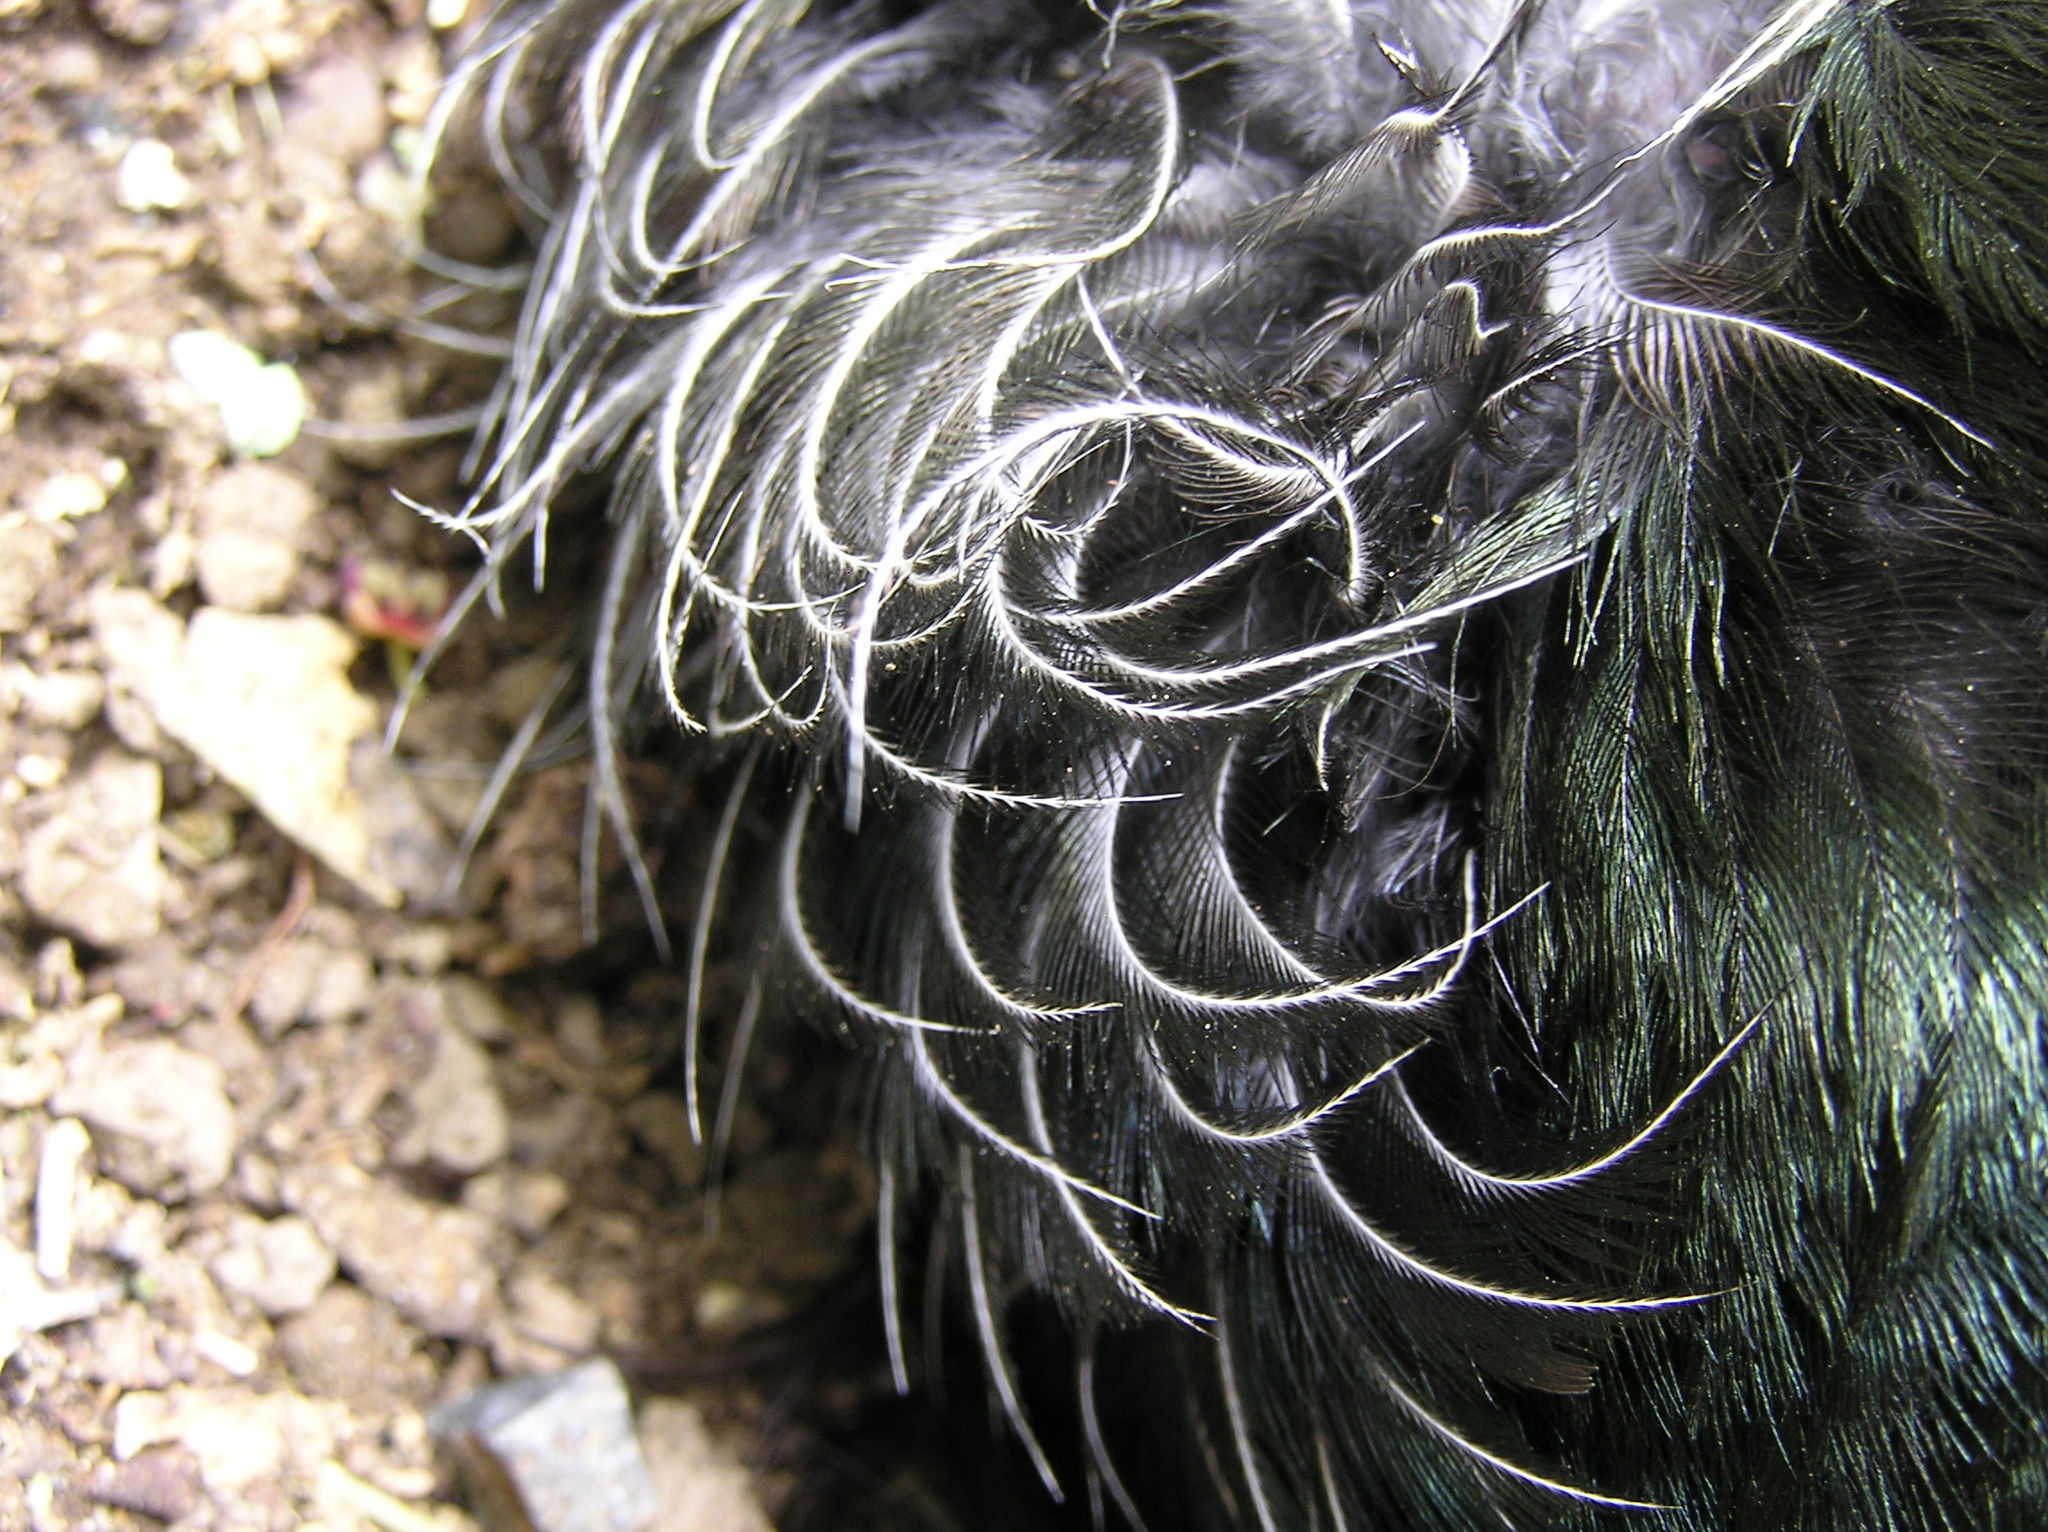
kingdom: Animalia
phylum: Chordata
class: Aves
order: Passeriformes
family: Meliphagidae
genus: Prosthemadera
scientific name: Prosthemadera novaeseelandiae
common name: Tui
